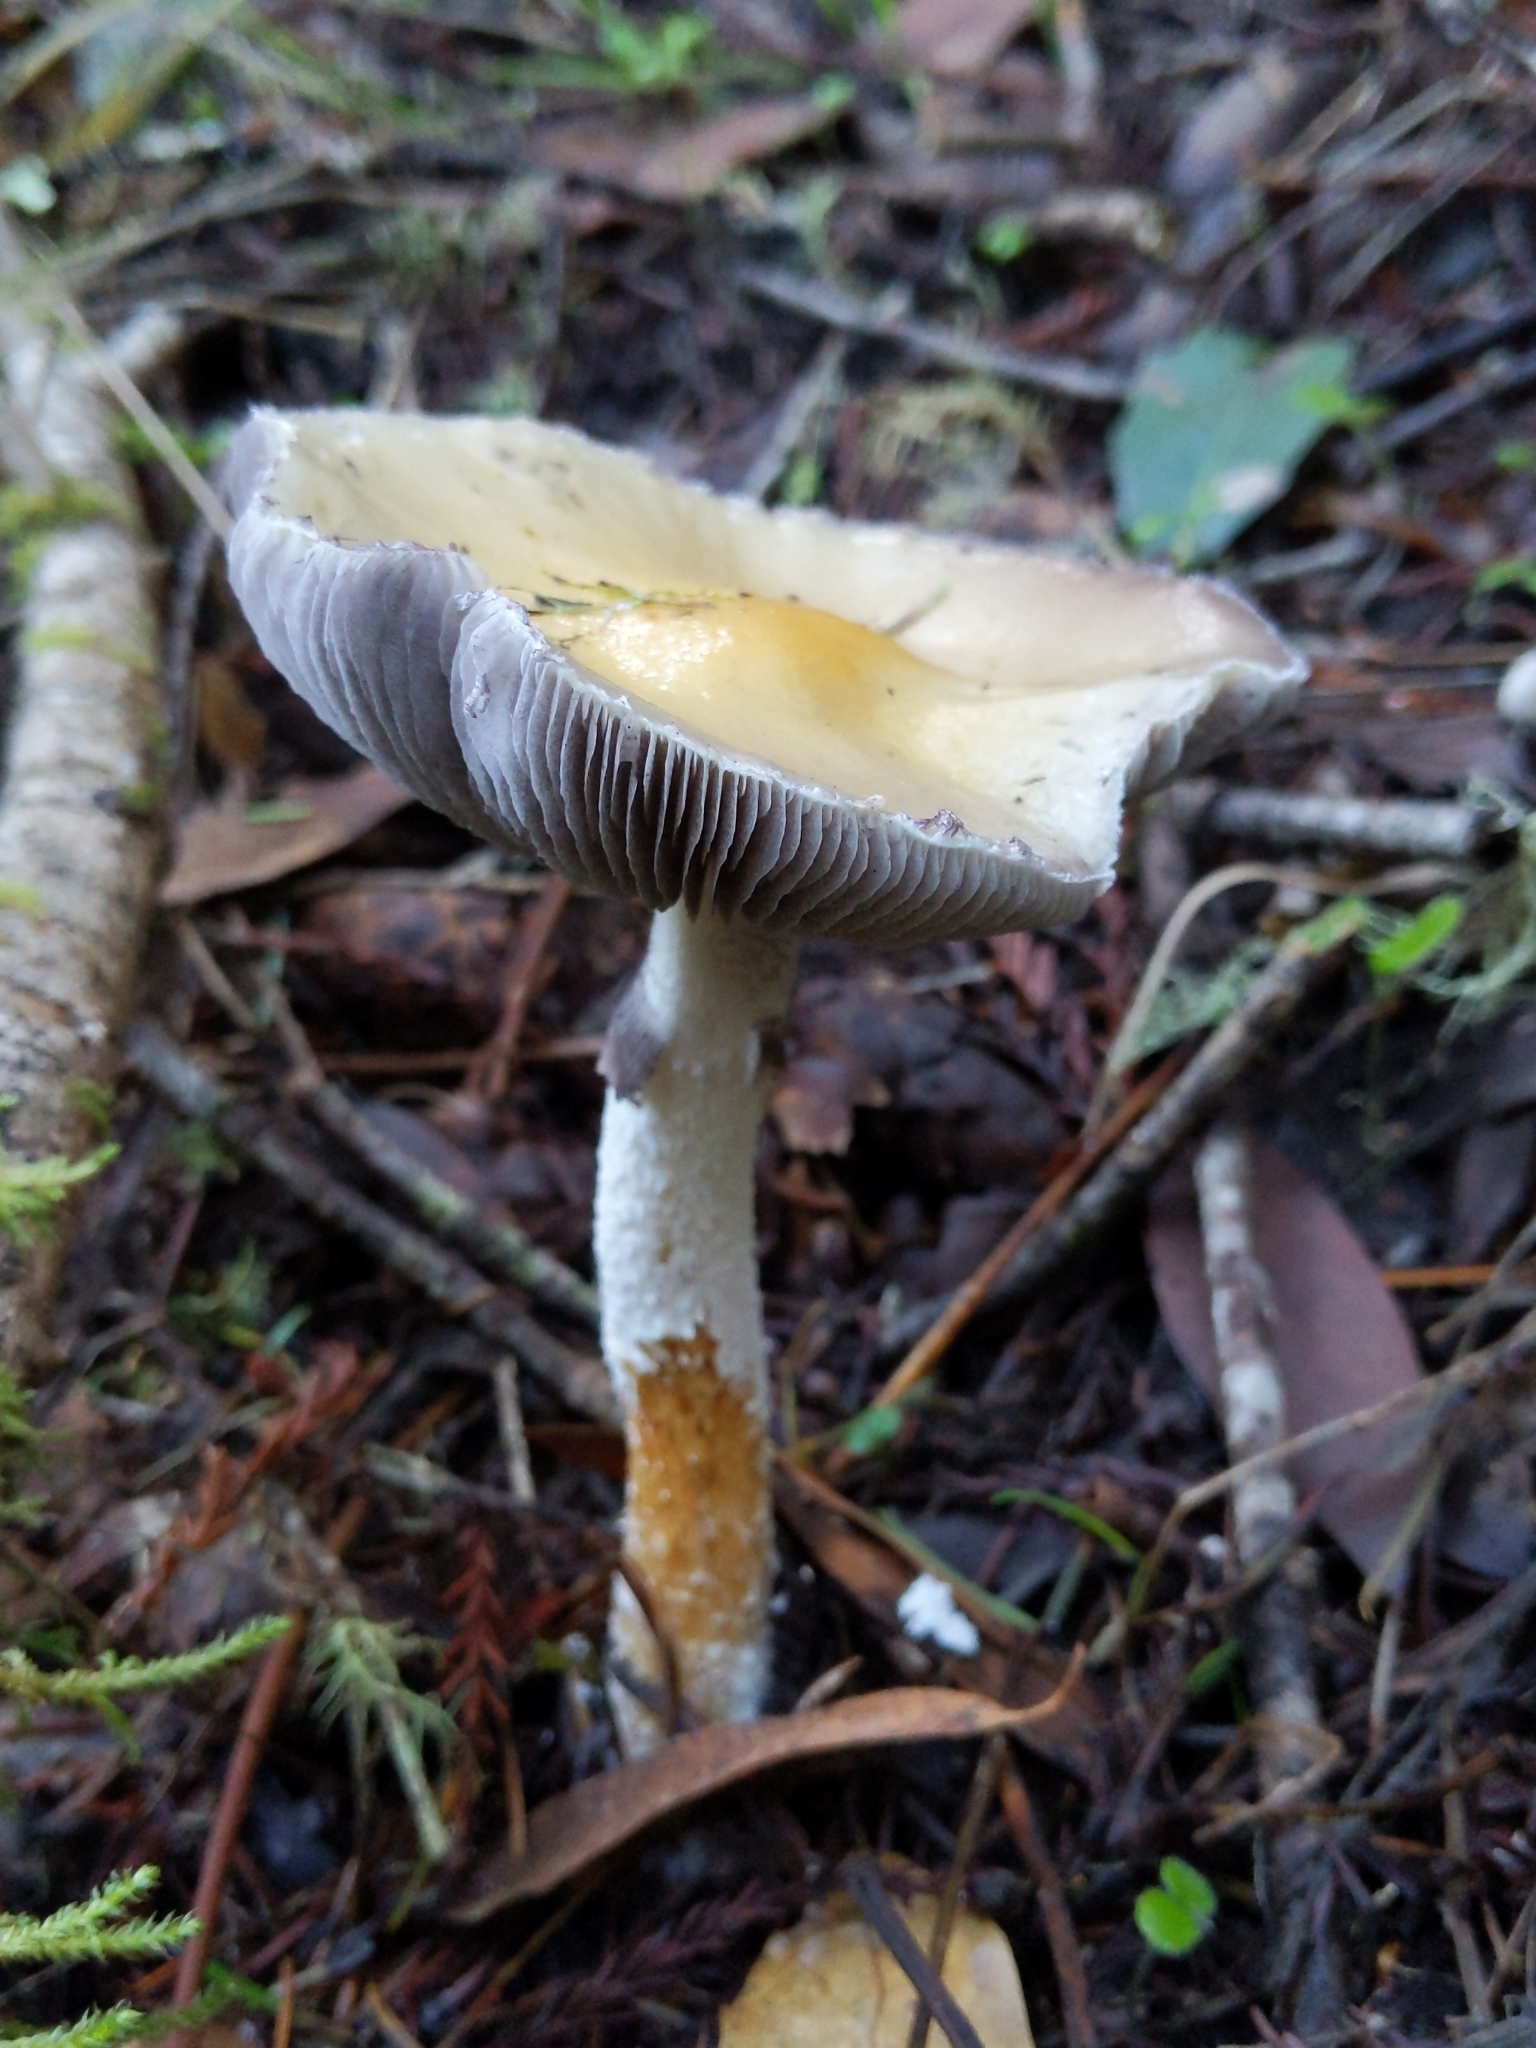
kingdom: Fungi
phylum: Basidiomycota
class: Agaricomycetes
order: Agaricales
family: Strophariaceae
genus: Stropharia
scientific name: Stropharia ambigua
